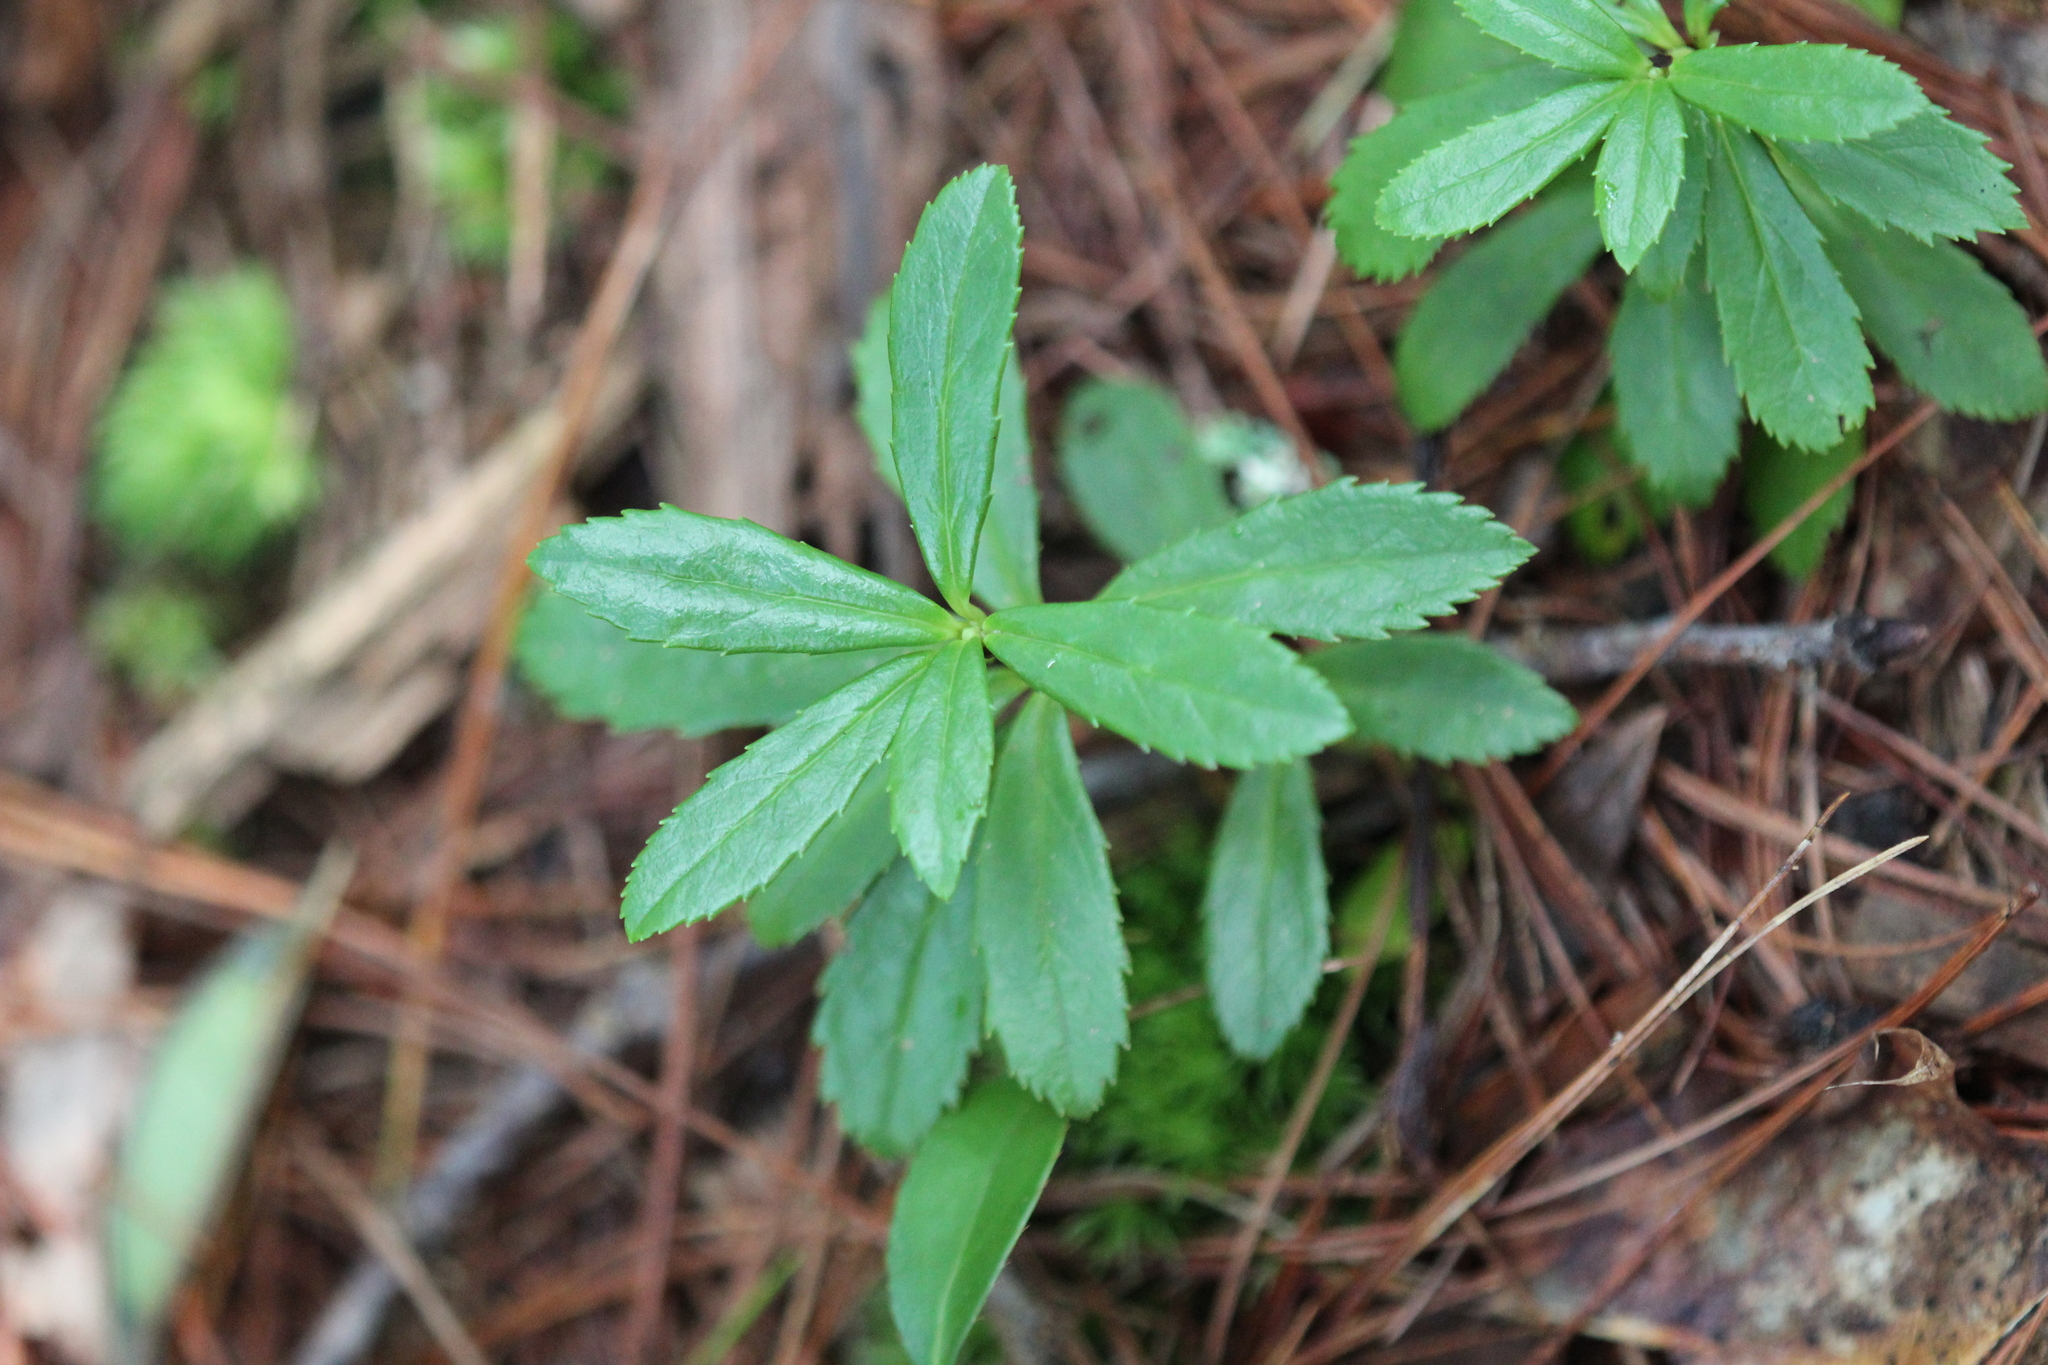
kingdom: Plantae
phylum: Tracheophyta
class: Magnoliopsida
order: Ericales
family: Ericaceae
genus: Chimaphila
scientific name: Chimaphila umbellata
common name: Pipsissewa
